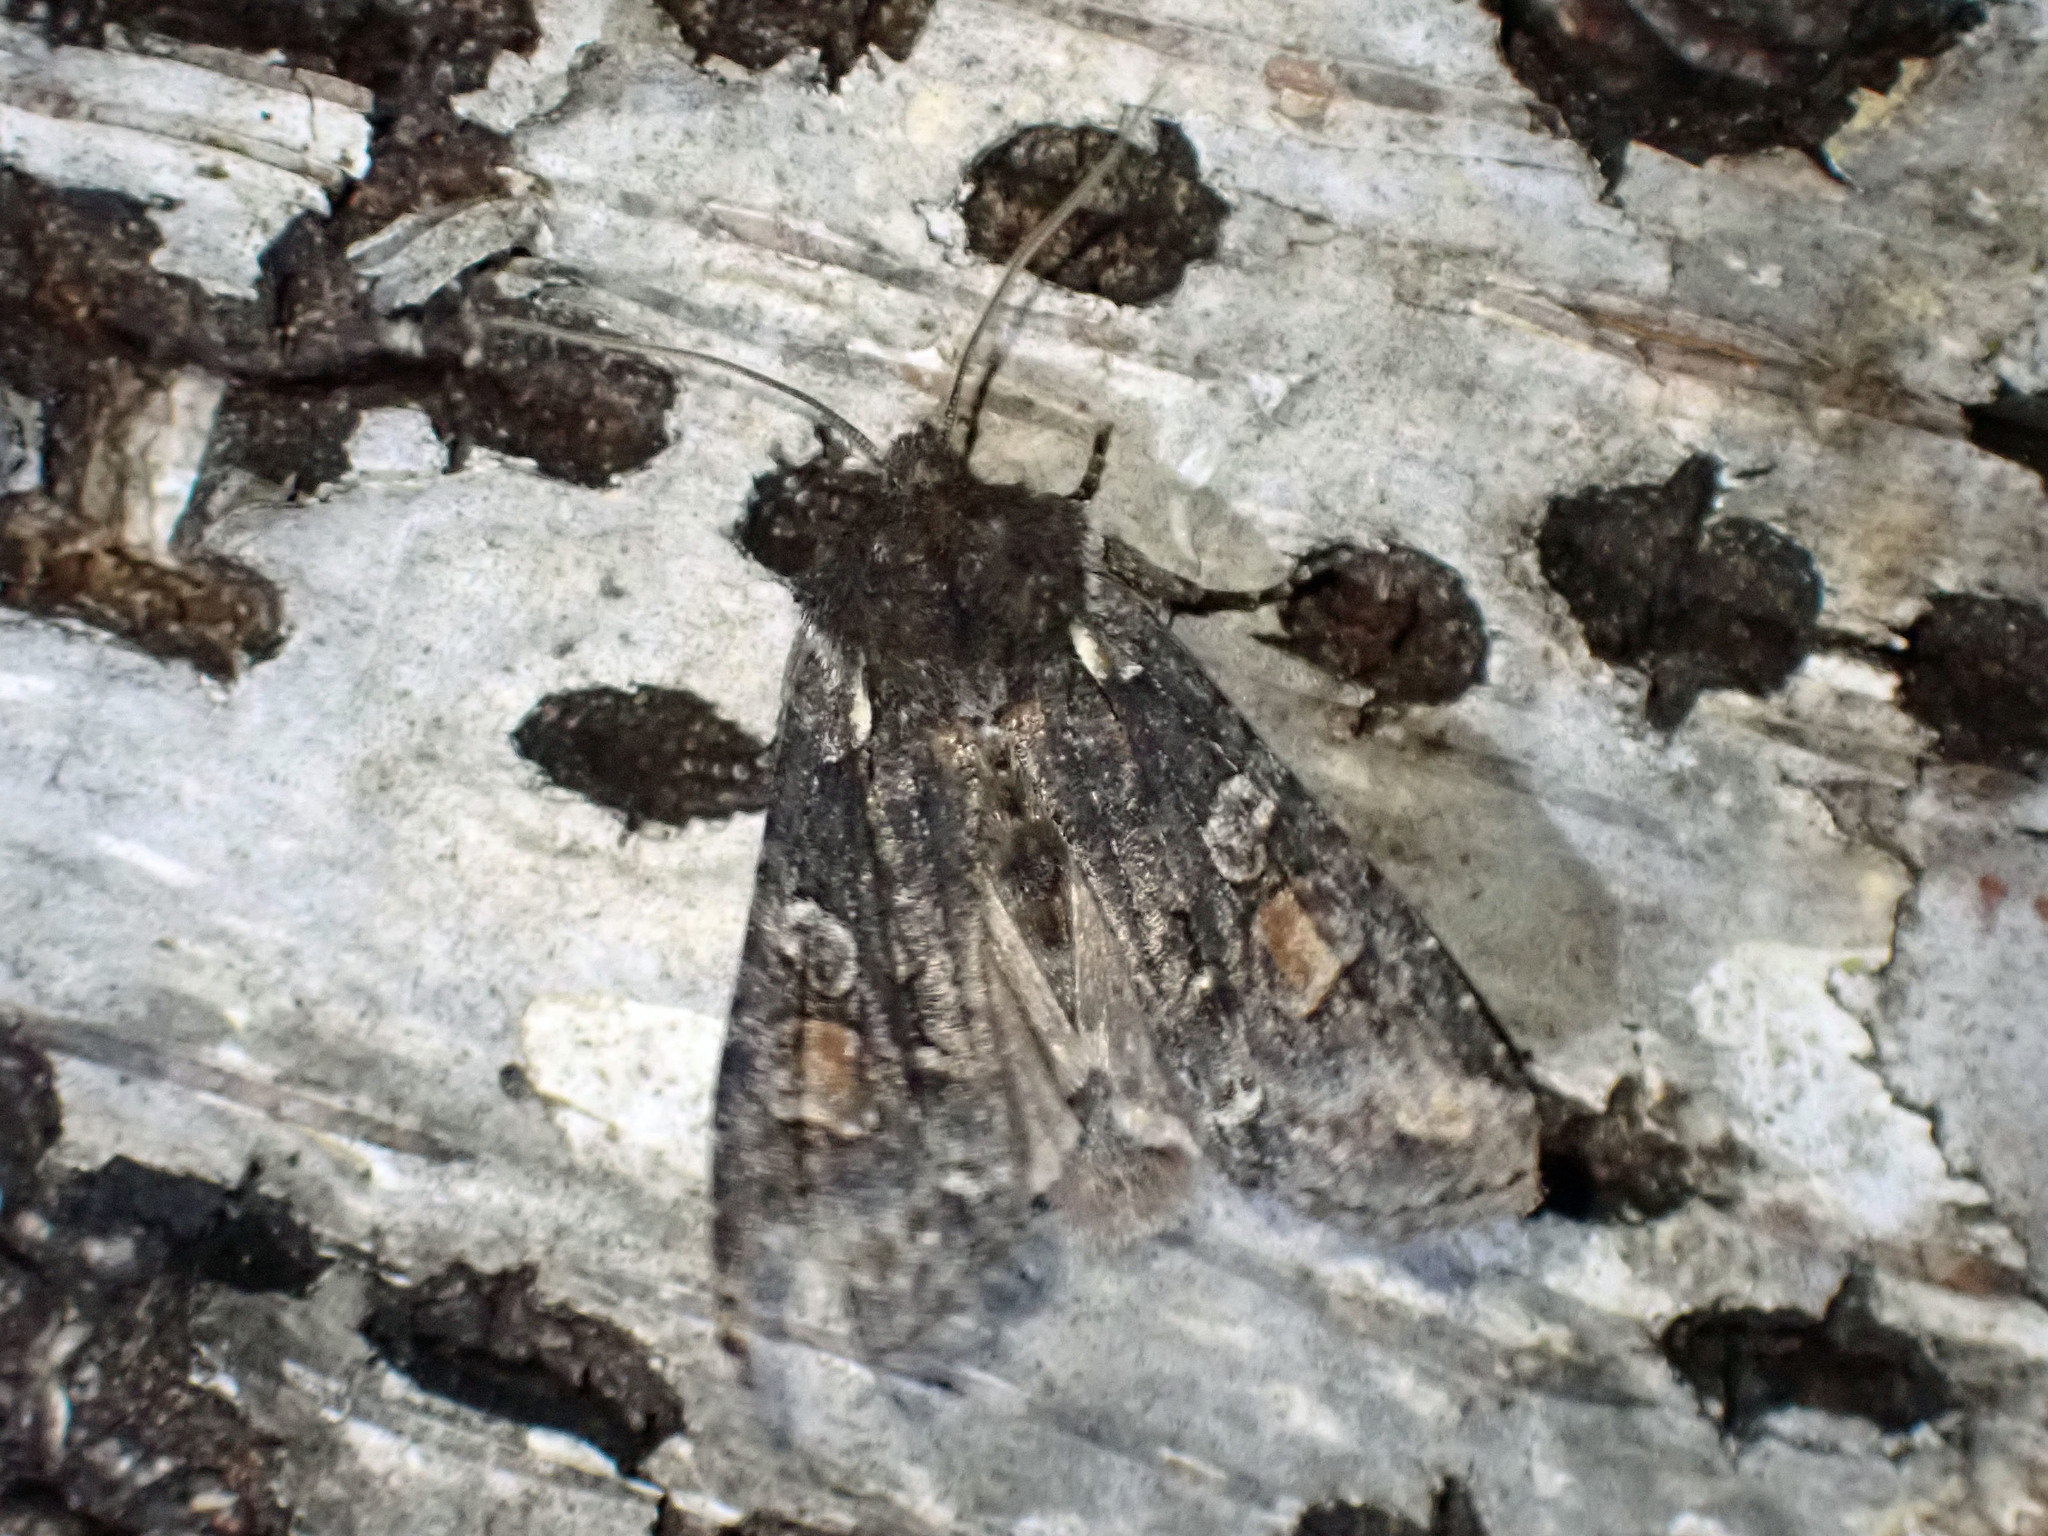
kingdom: Animalia
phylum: Arthropoda
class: Insecta
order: Lepidoptera
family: Noctuidae
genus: Lithophane
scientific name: Lithophane pexata
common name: Plush-naped pinion moth
